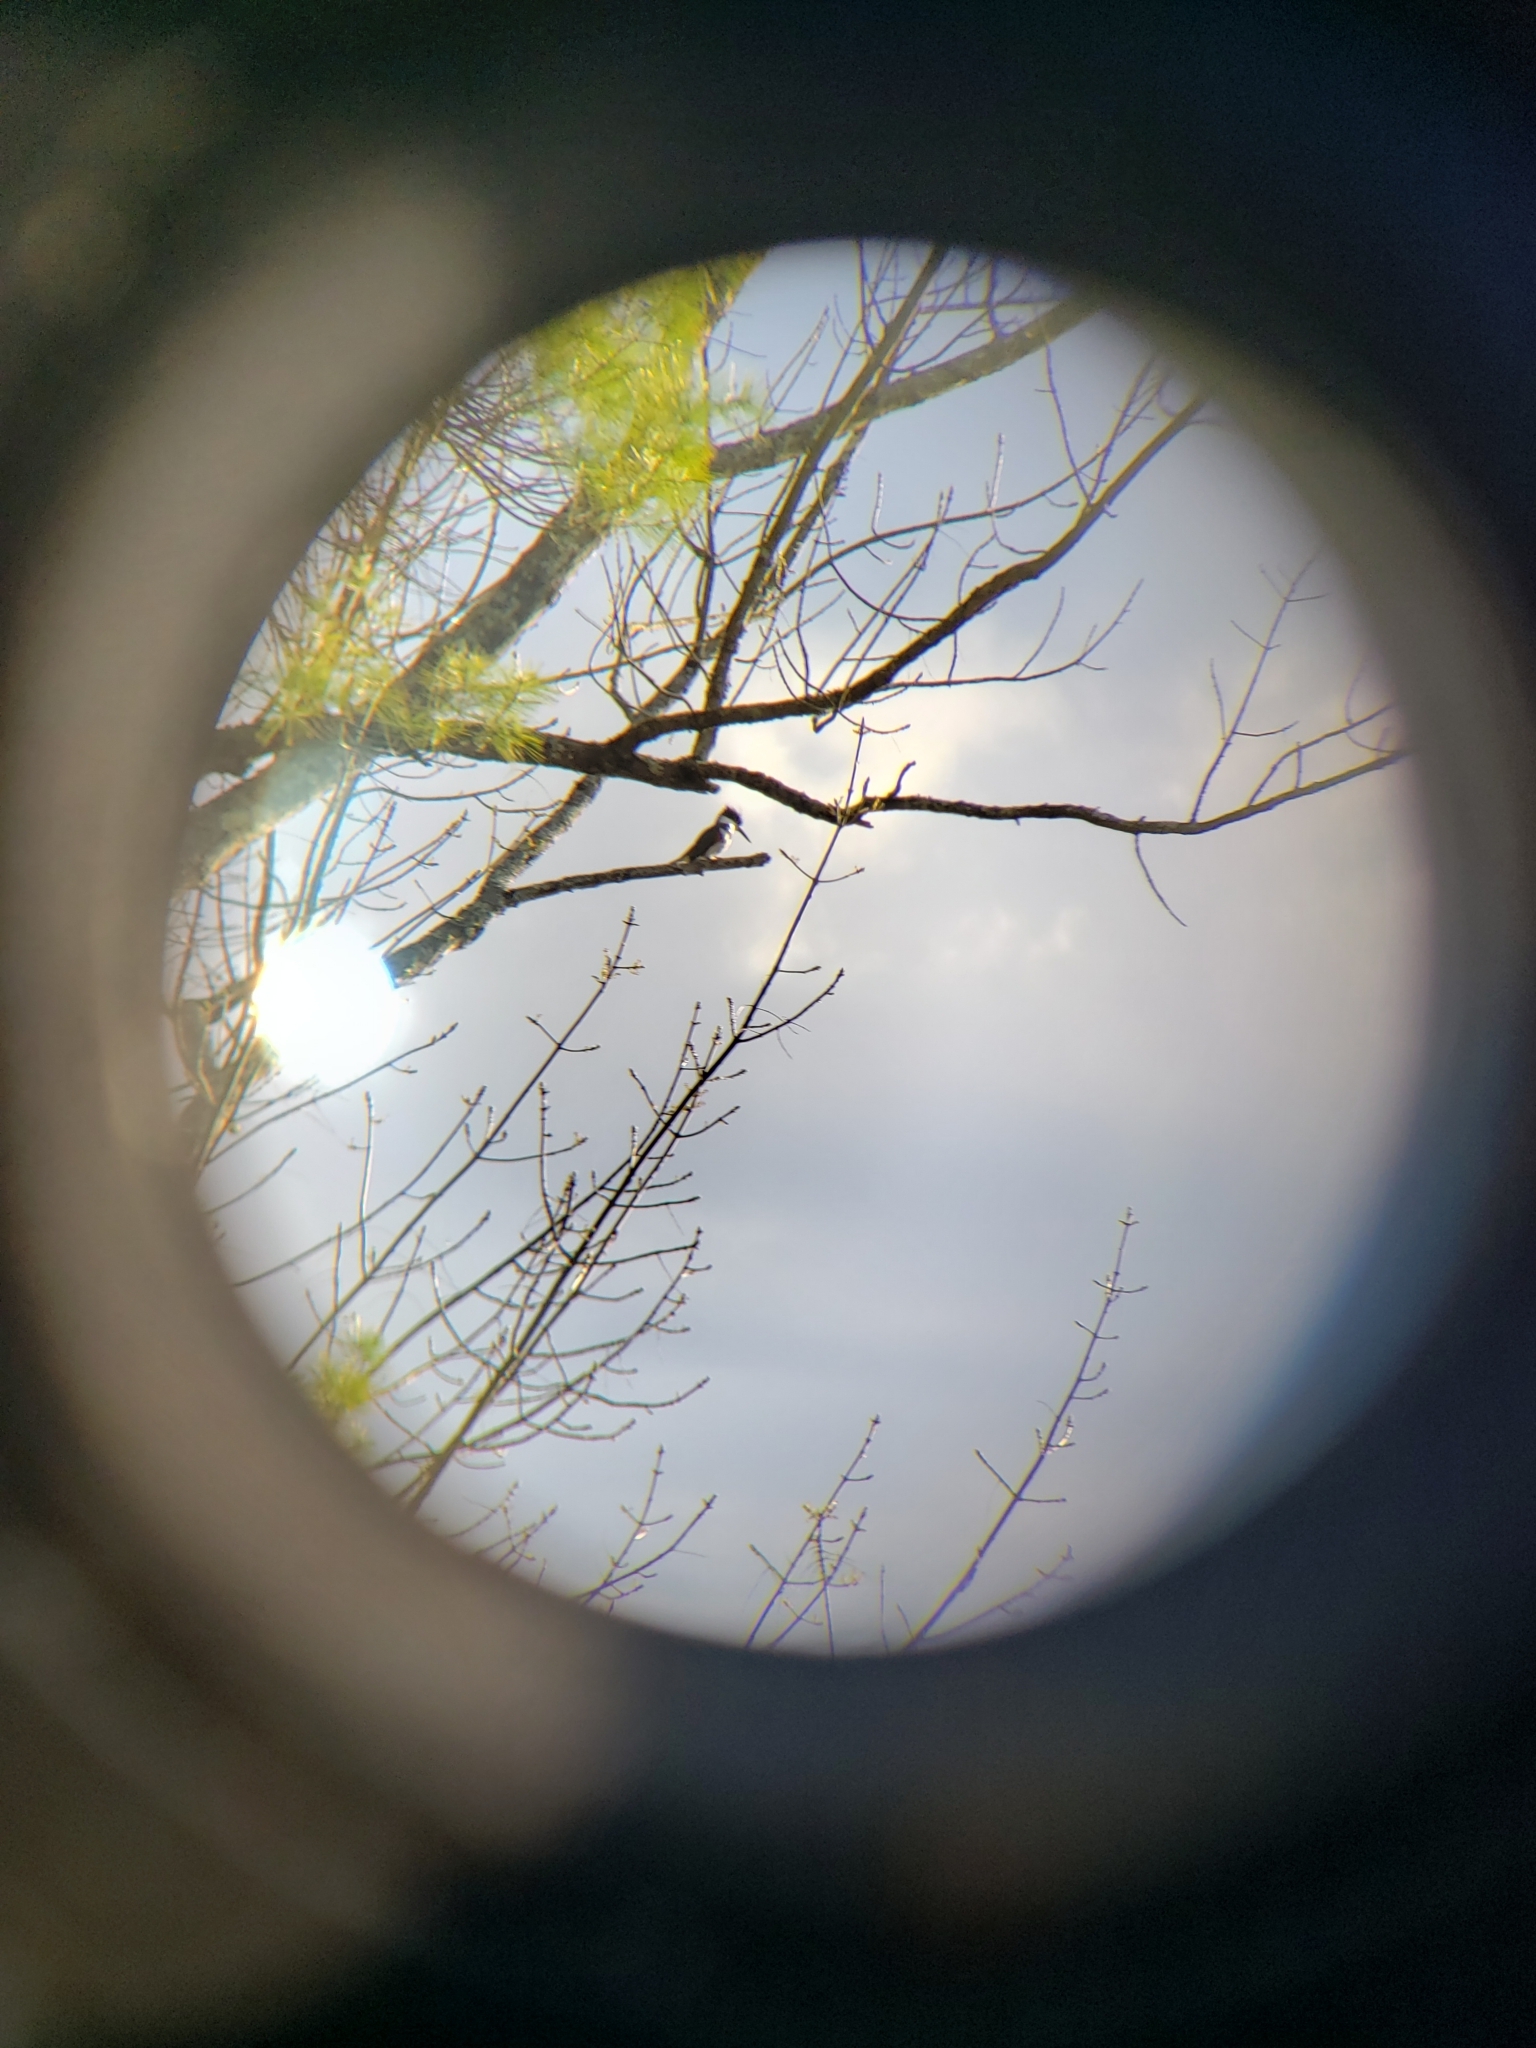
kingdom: Animalia
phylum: Chordata
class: Aves
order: Coraciiformes
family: Alcedinidae
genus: Megaceryle
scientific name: Megaceryle alcyon
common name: Belted kingfisher
